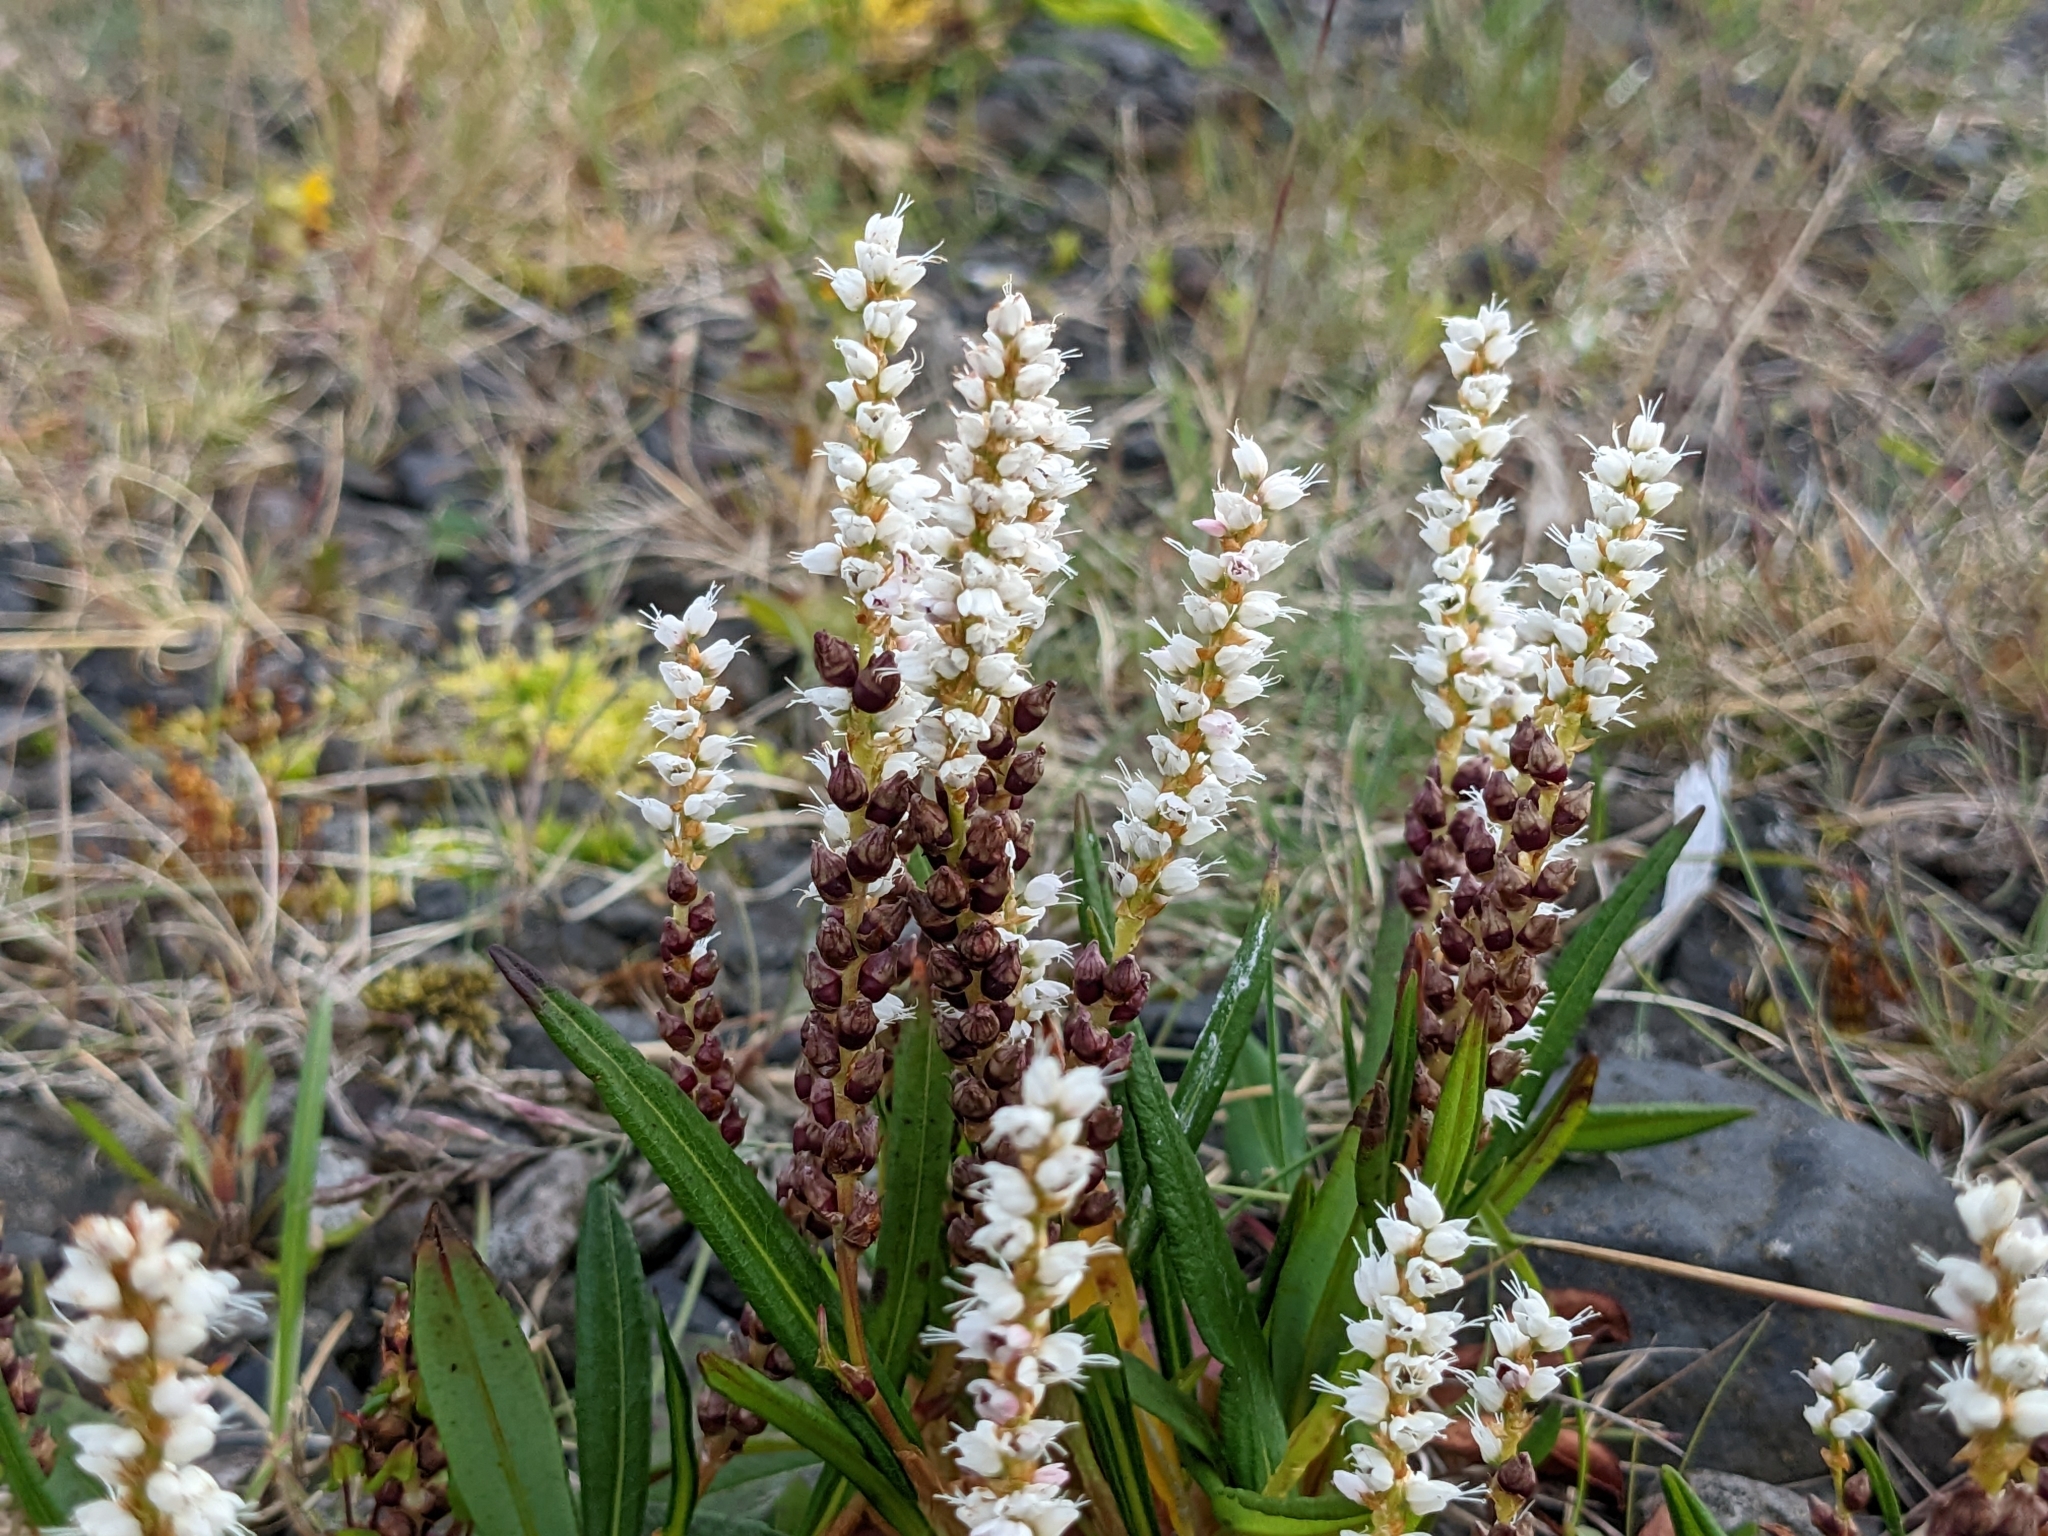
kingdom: Plantae
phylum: Tracheophyta
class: Magnoliopsida
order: Caryophyllales
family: Polygonaceae
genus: Bistorta
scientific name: Bistorta vivipara
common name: Alpine bistort
